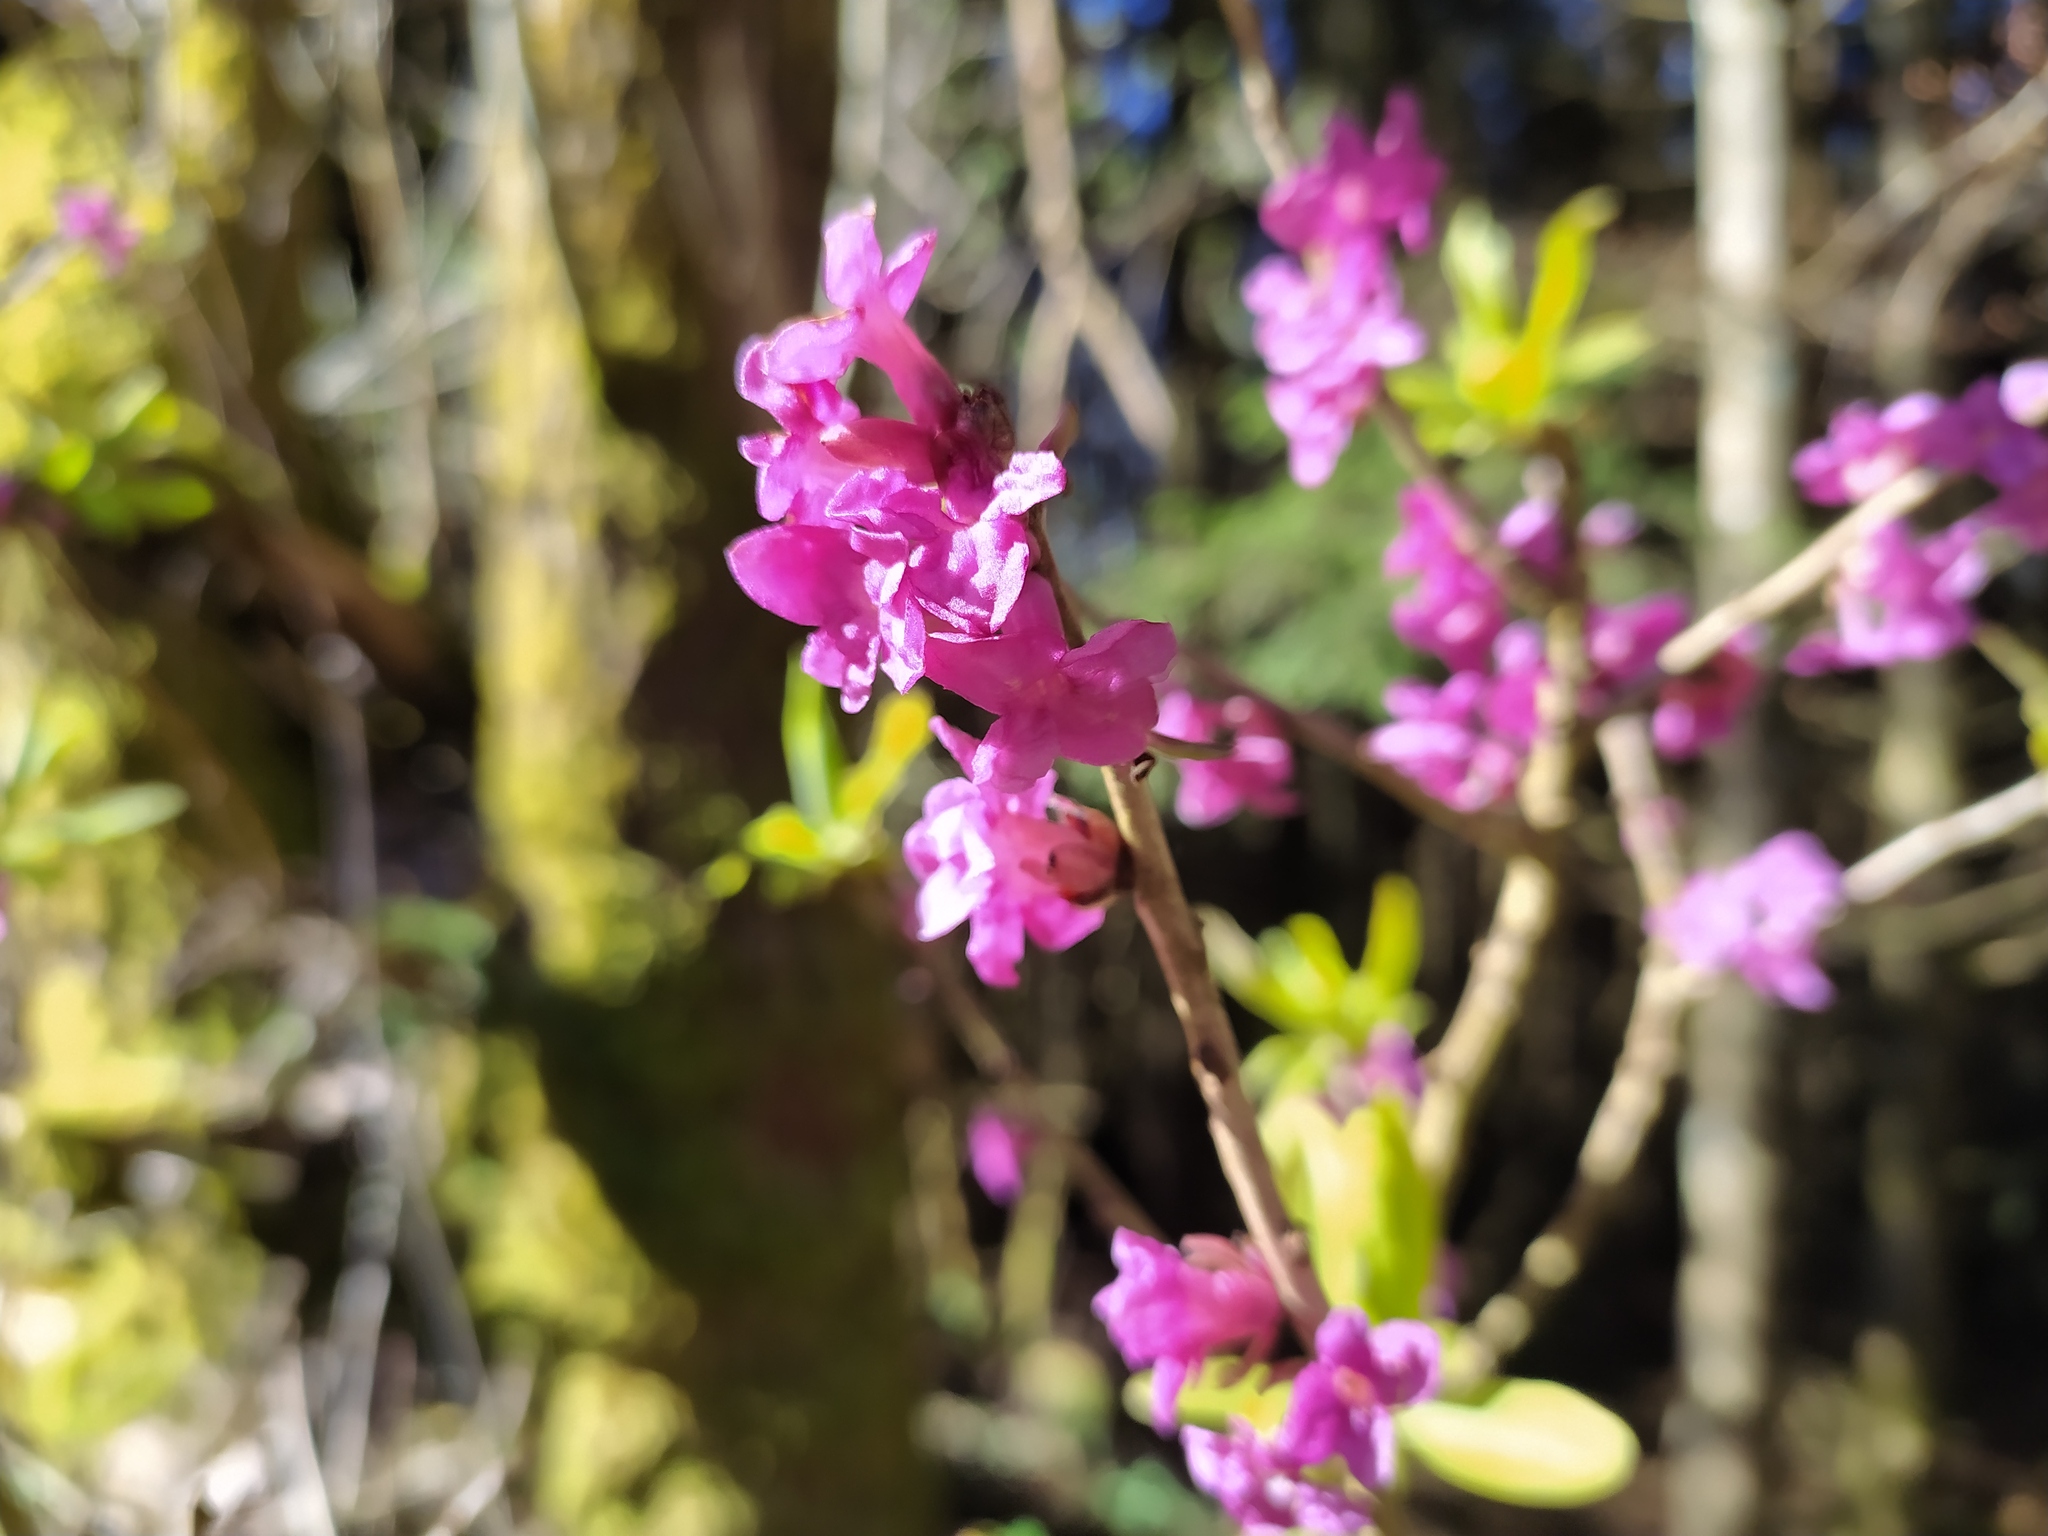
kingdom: Plantae
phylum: Tracheophyta
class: Magnoliopsida
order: Malvales
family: Thymelaeaceae
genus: Daphne
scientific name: Daphne mezereum
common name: Mezereon
